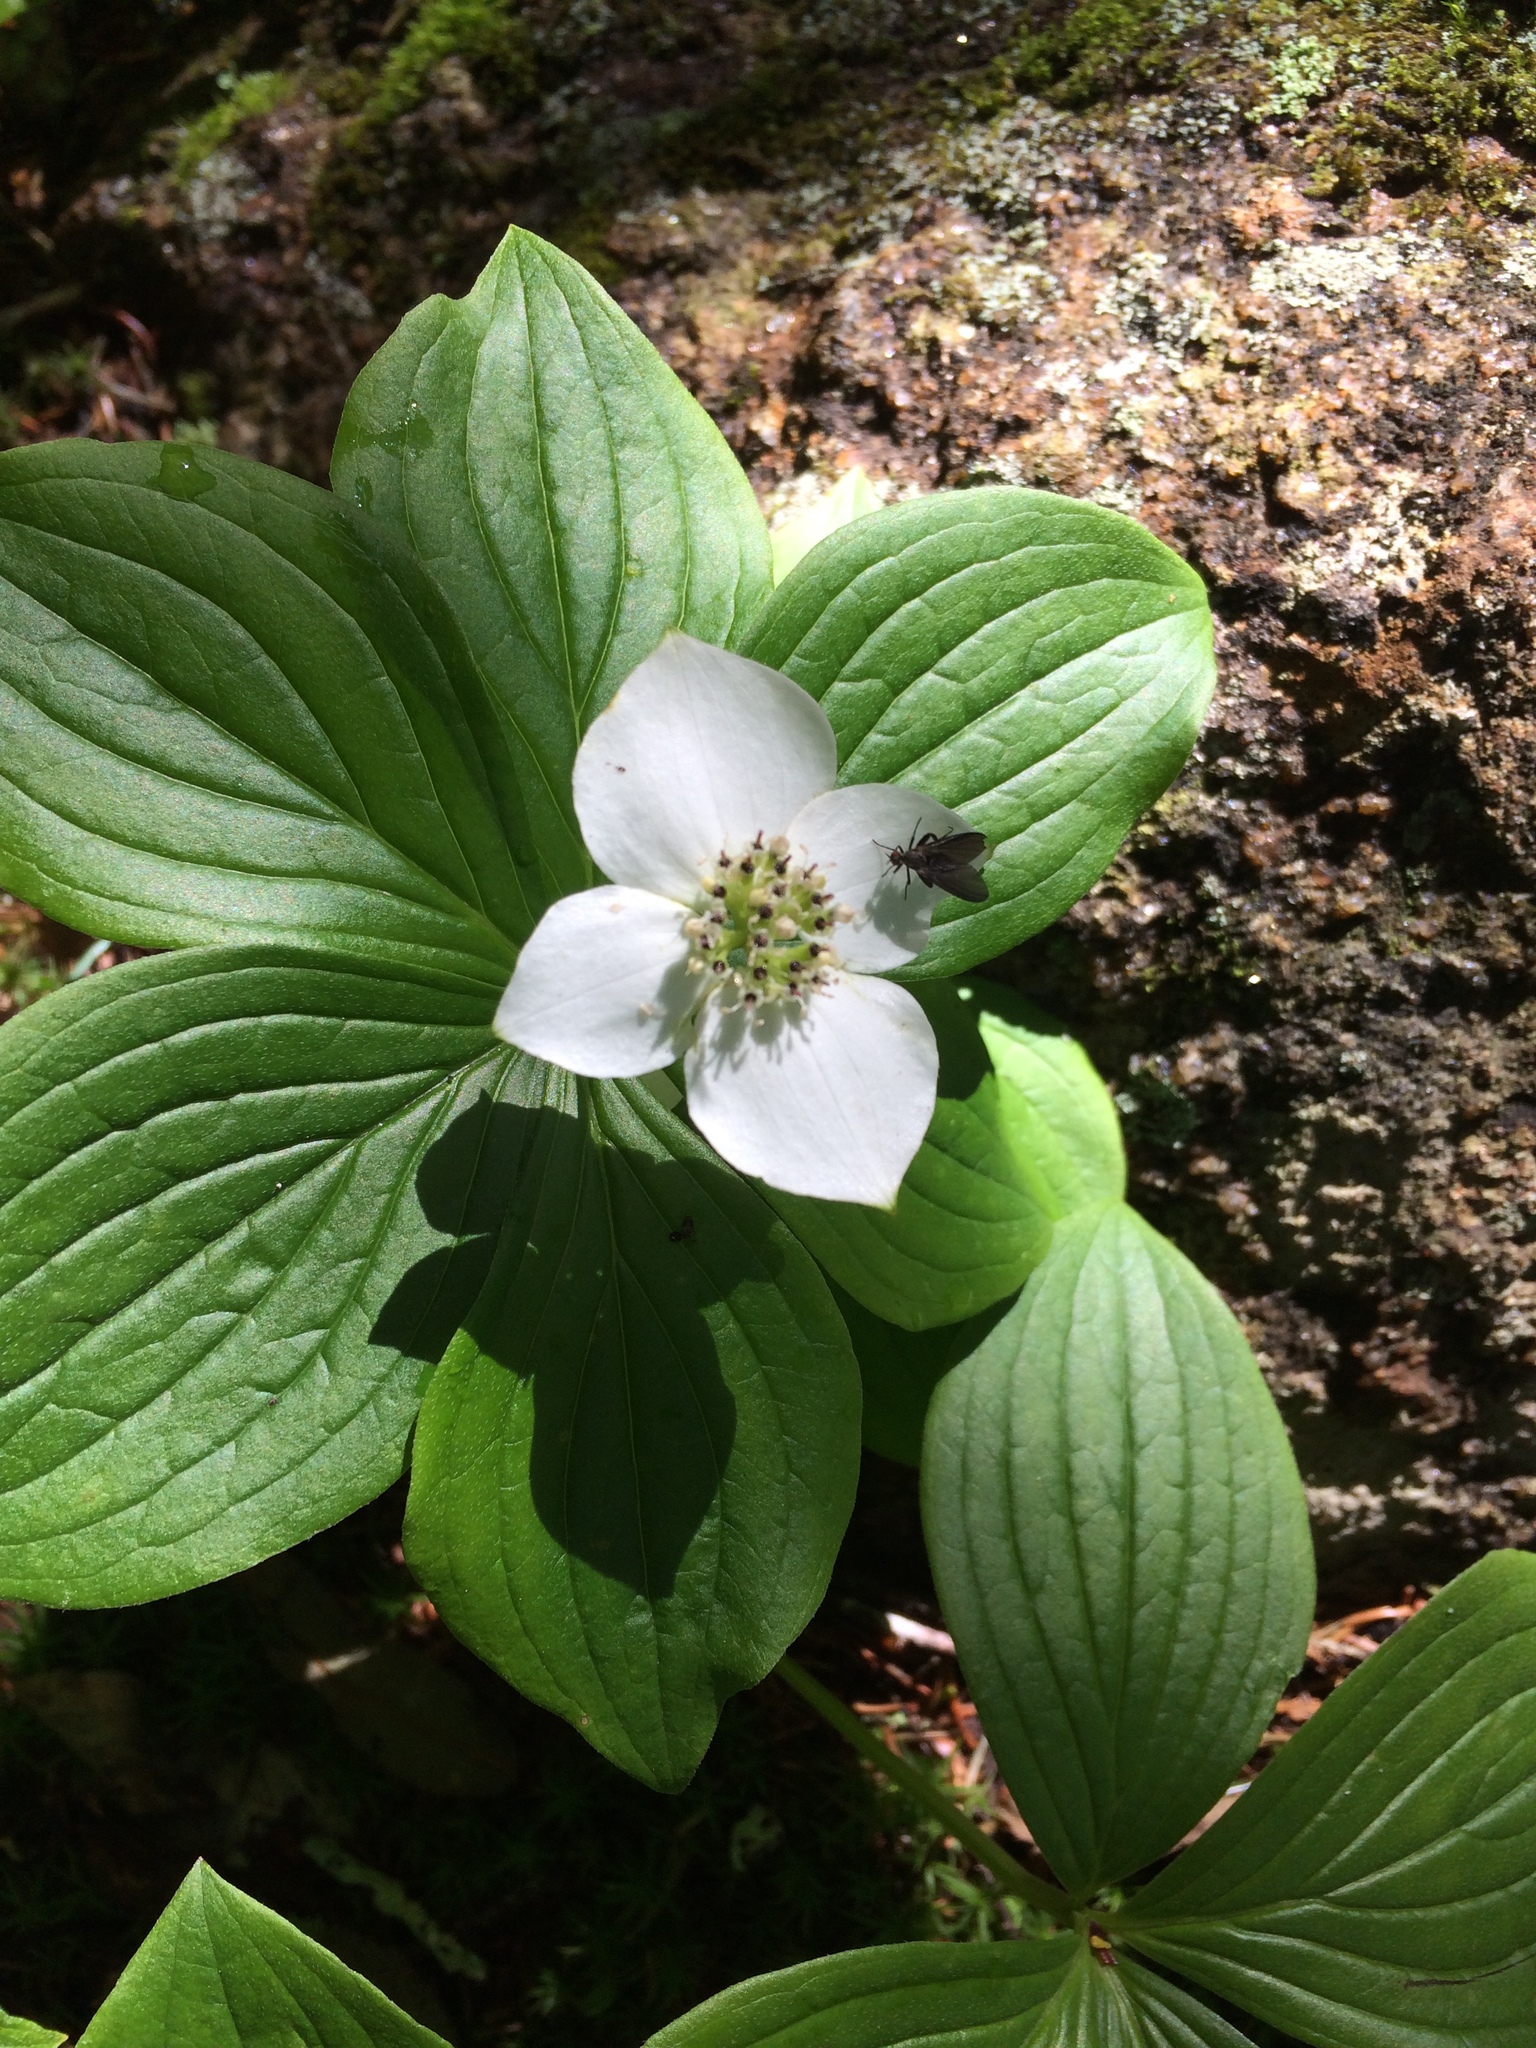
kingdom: Plantae
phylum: Tracheophyta
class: Magnoliopsida
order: Cornales
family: Cornaceae
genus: Cornus
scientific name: Cornus canadensis
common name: Creeping dogwood
